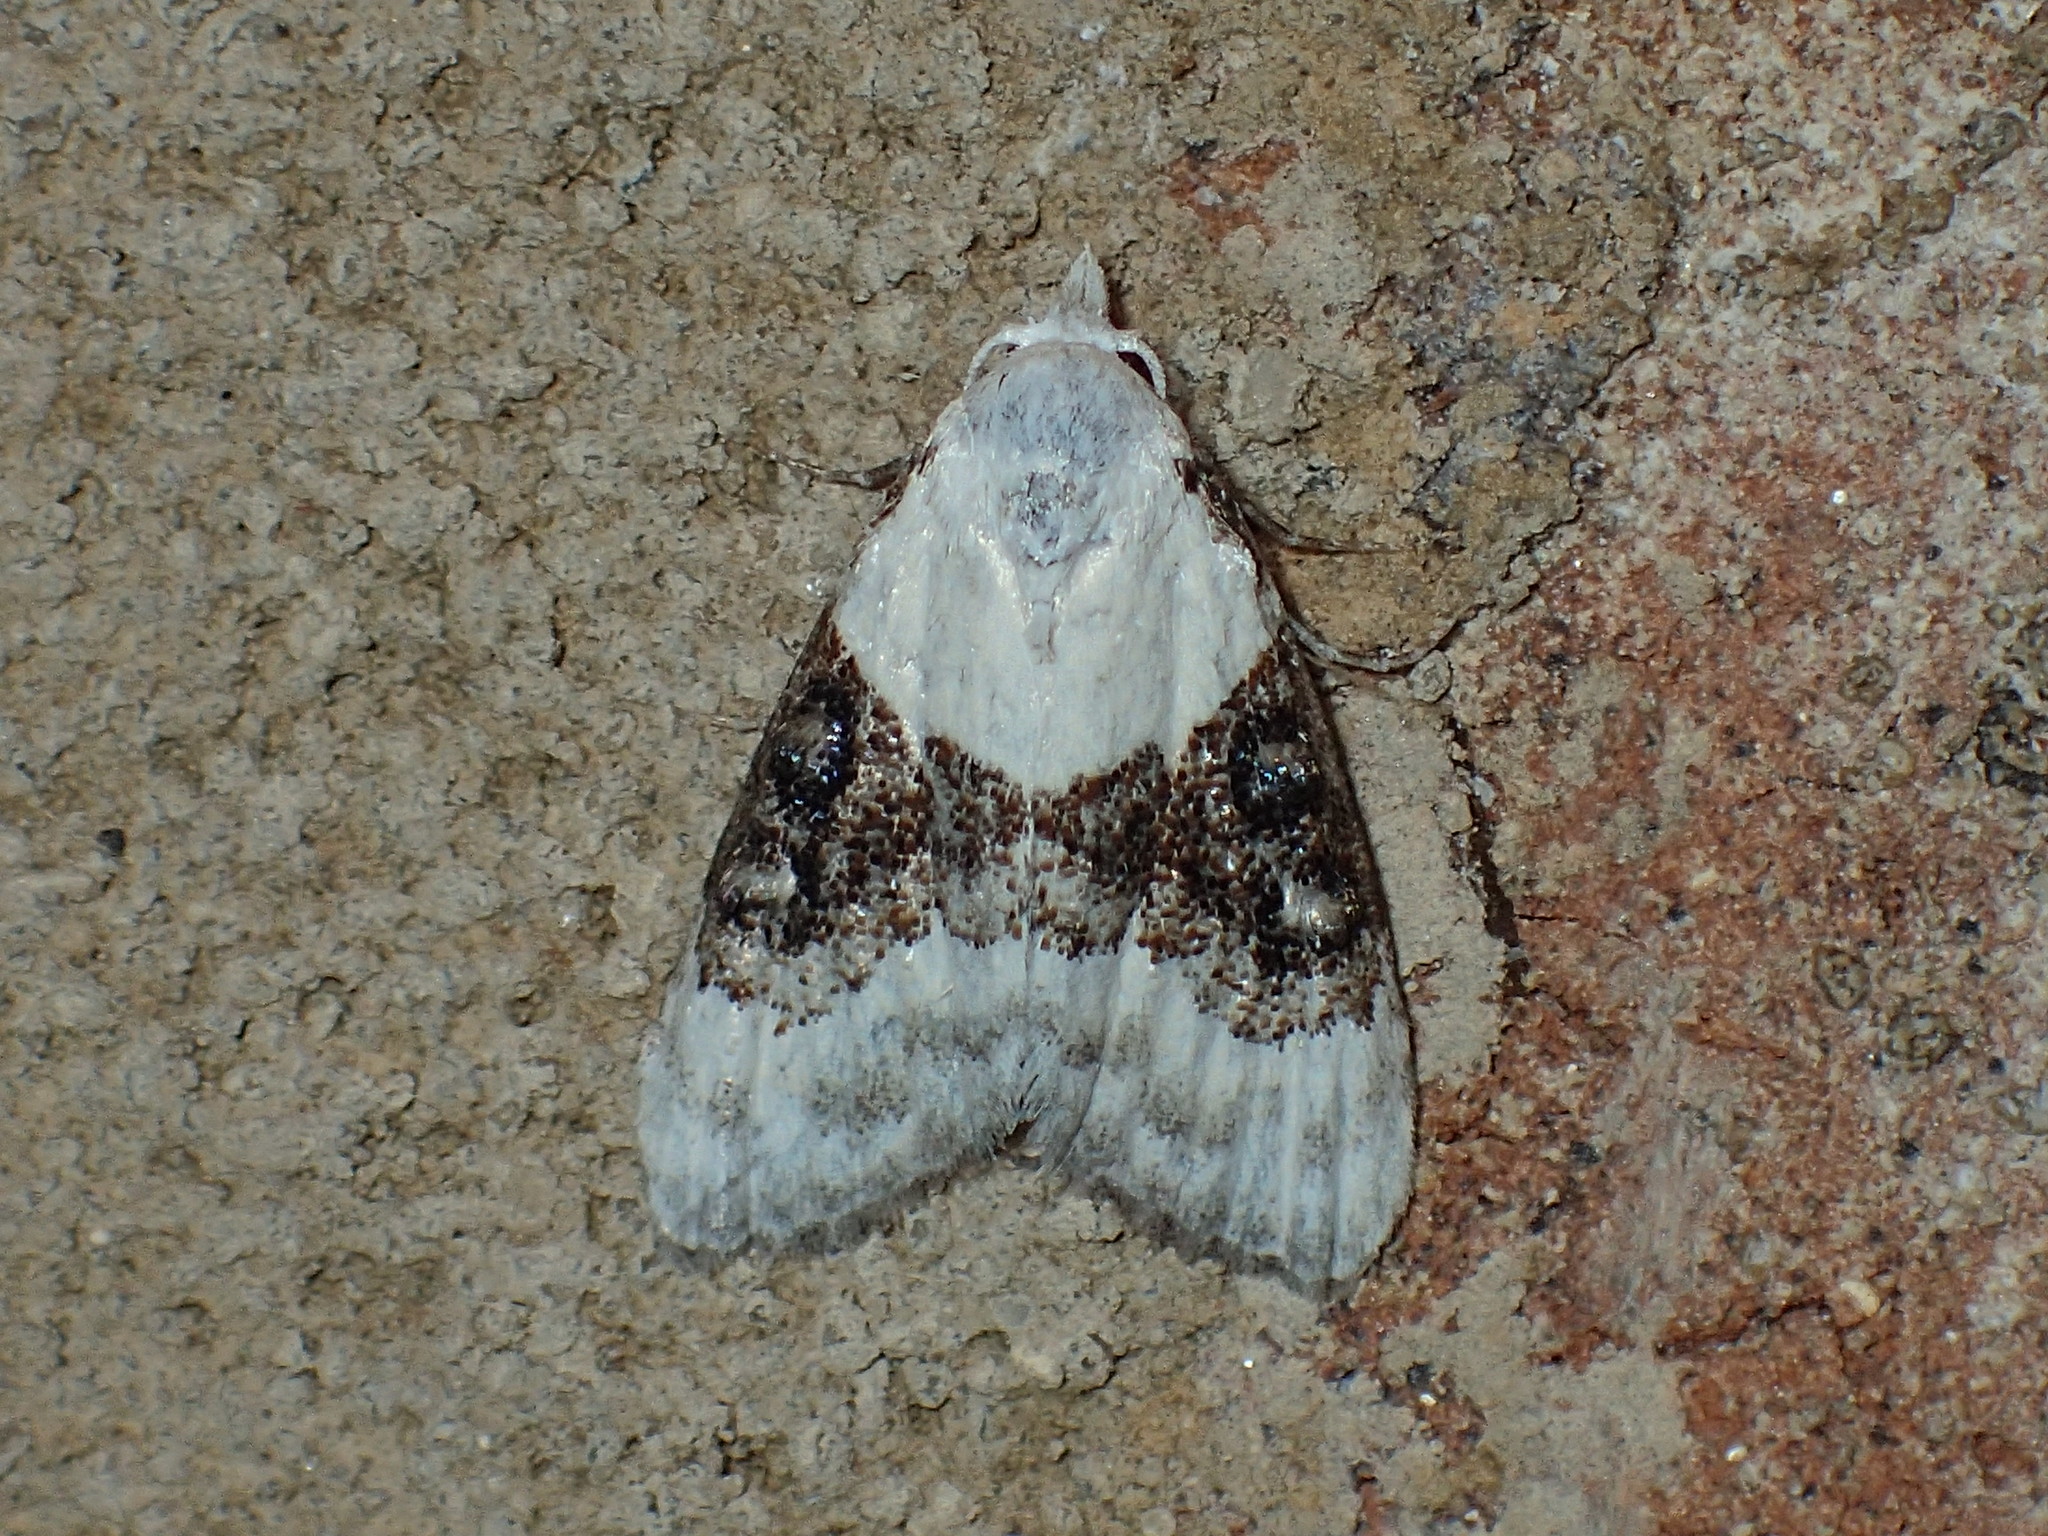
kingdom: Animalia
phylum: Arthropoda
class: Insecta
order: Lepidoptera
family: Nolidae
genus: Nola
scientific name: Nola pustulata
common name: Sharp-blotched nola moth
